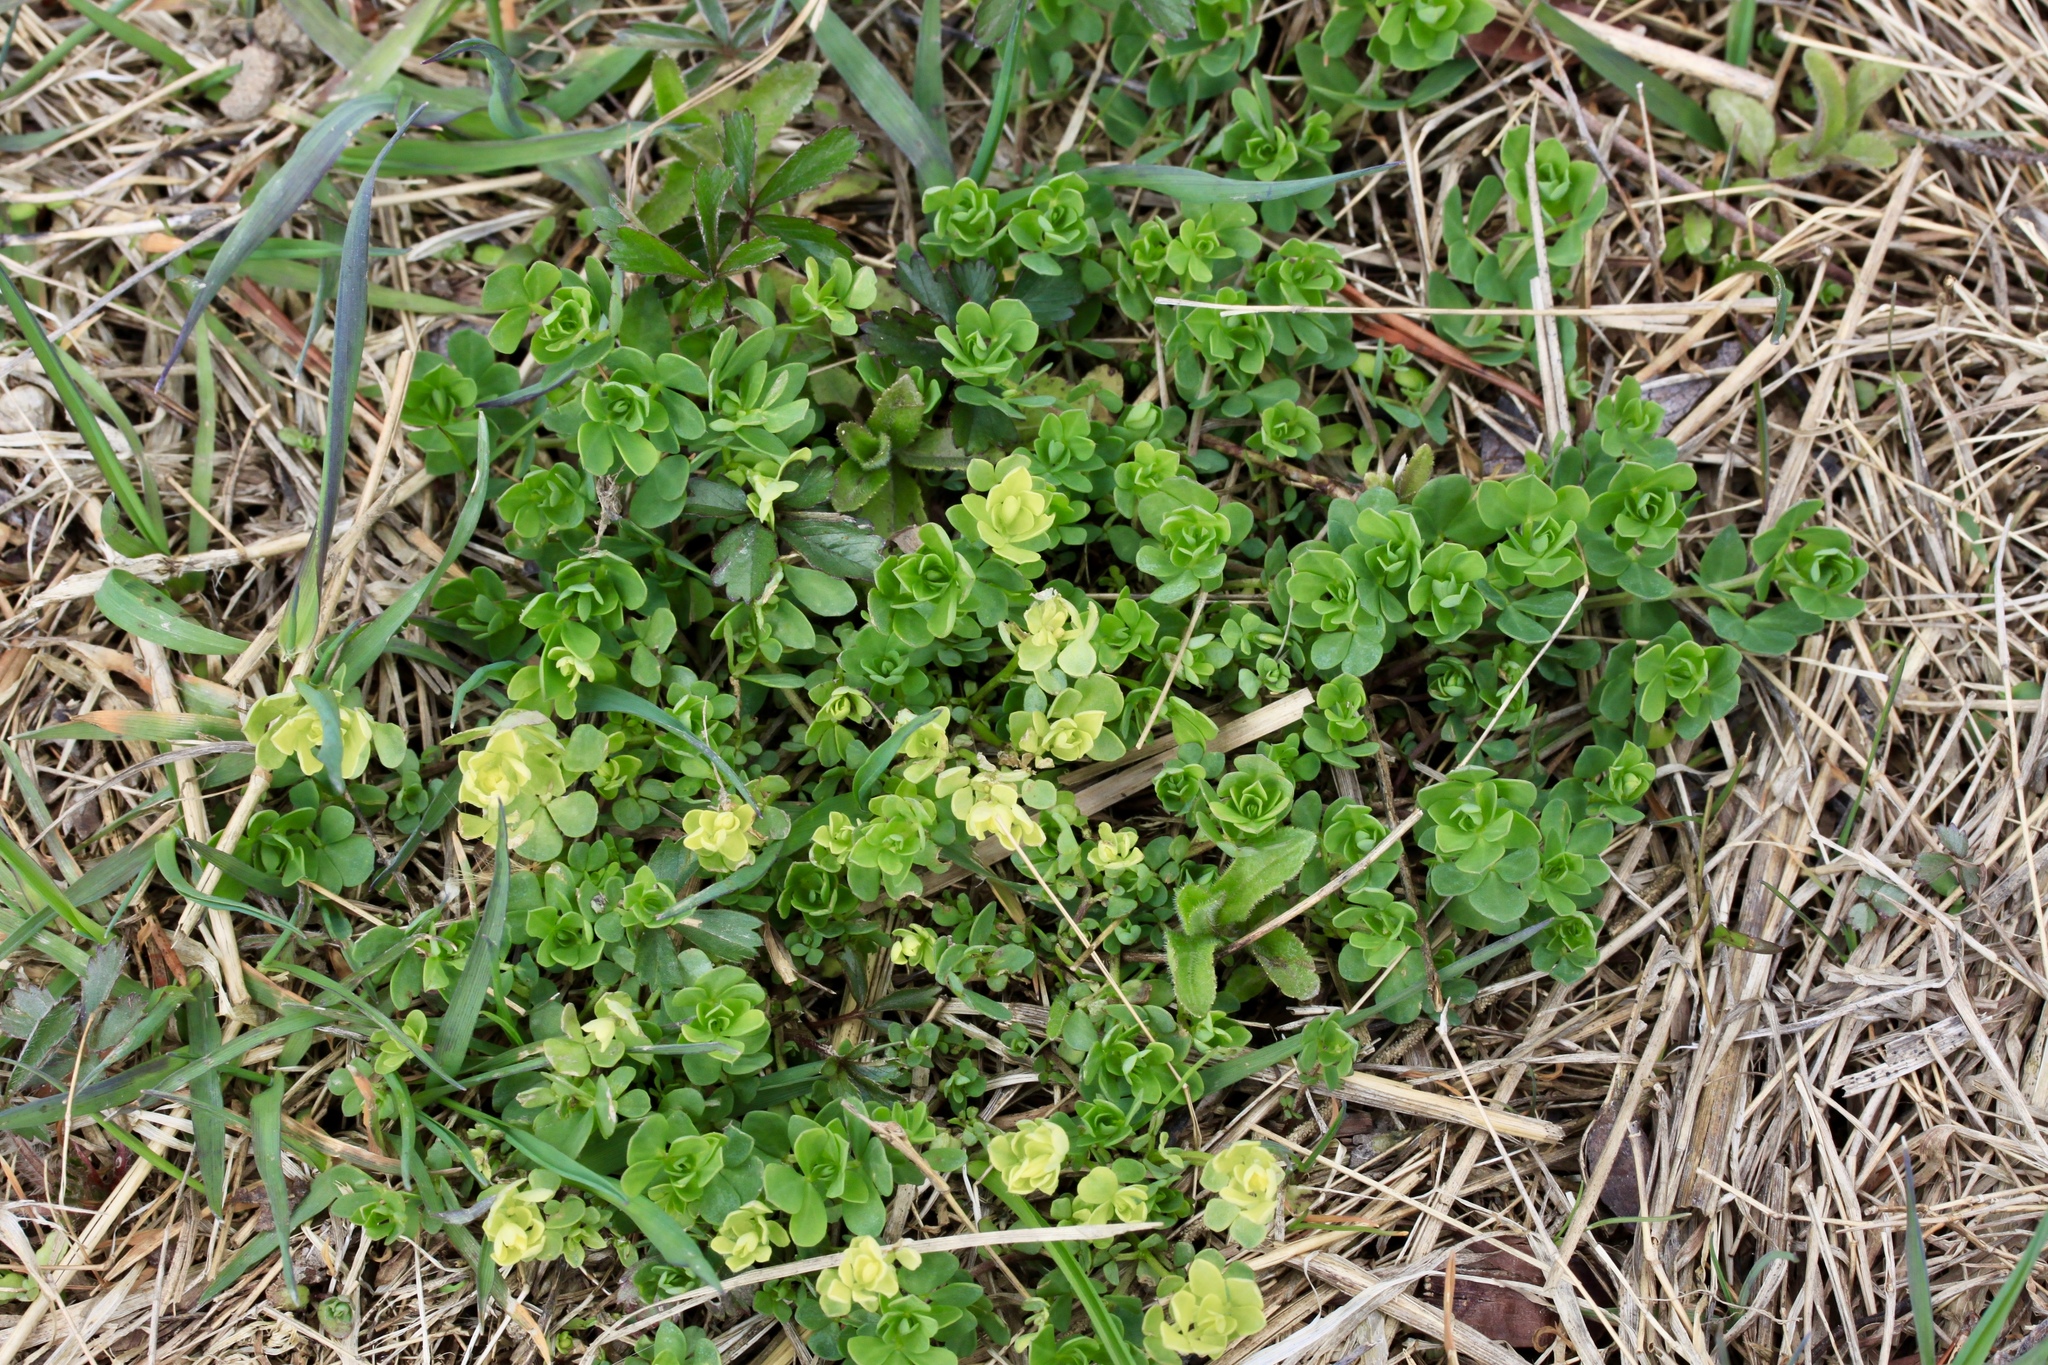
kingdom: Plantae
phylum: Tracheophyta
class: Magnoliopsida
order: Fabales
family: Fabaceae
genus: Lotus
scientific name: Lotus corniculatus
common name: Common bird's-foot-trefoil
